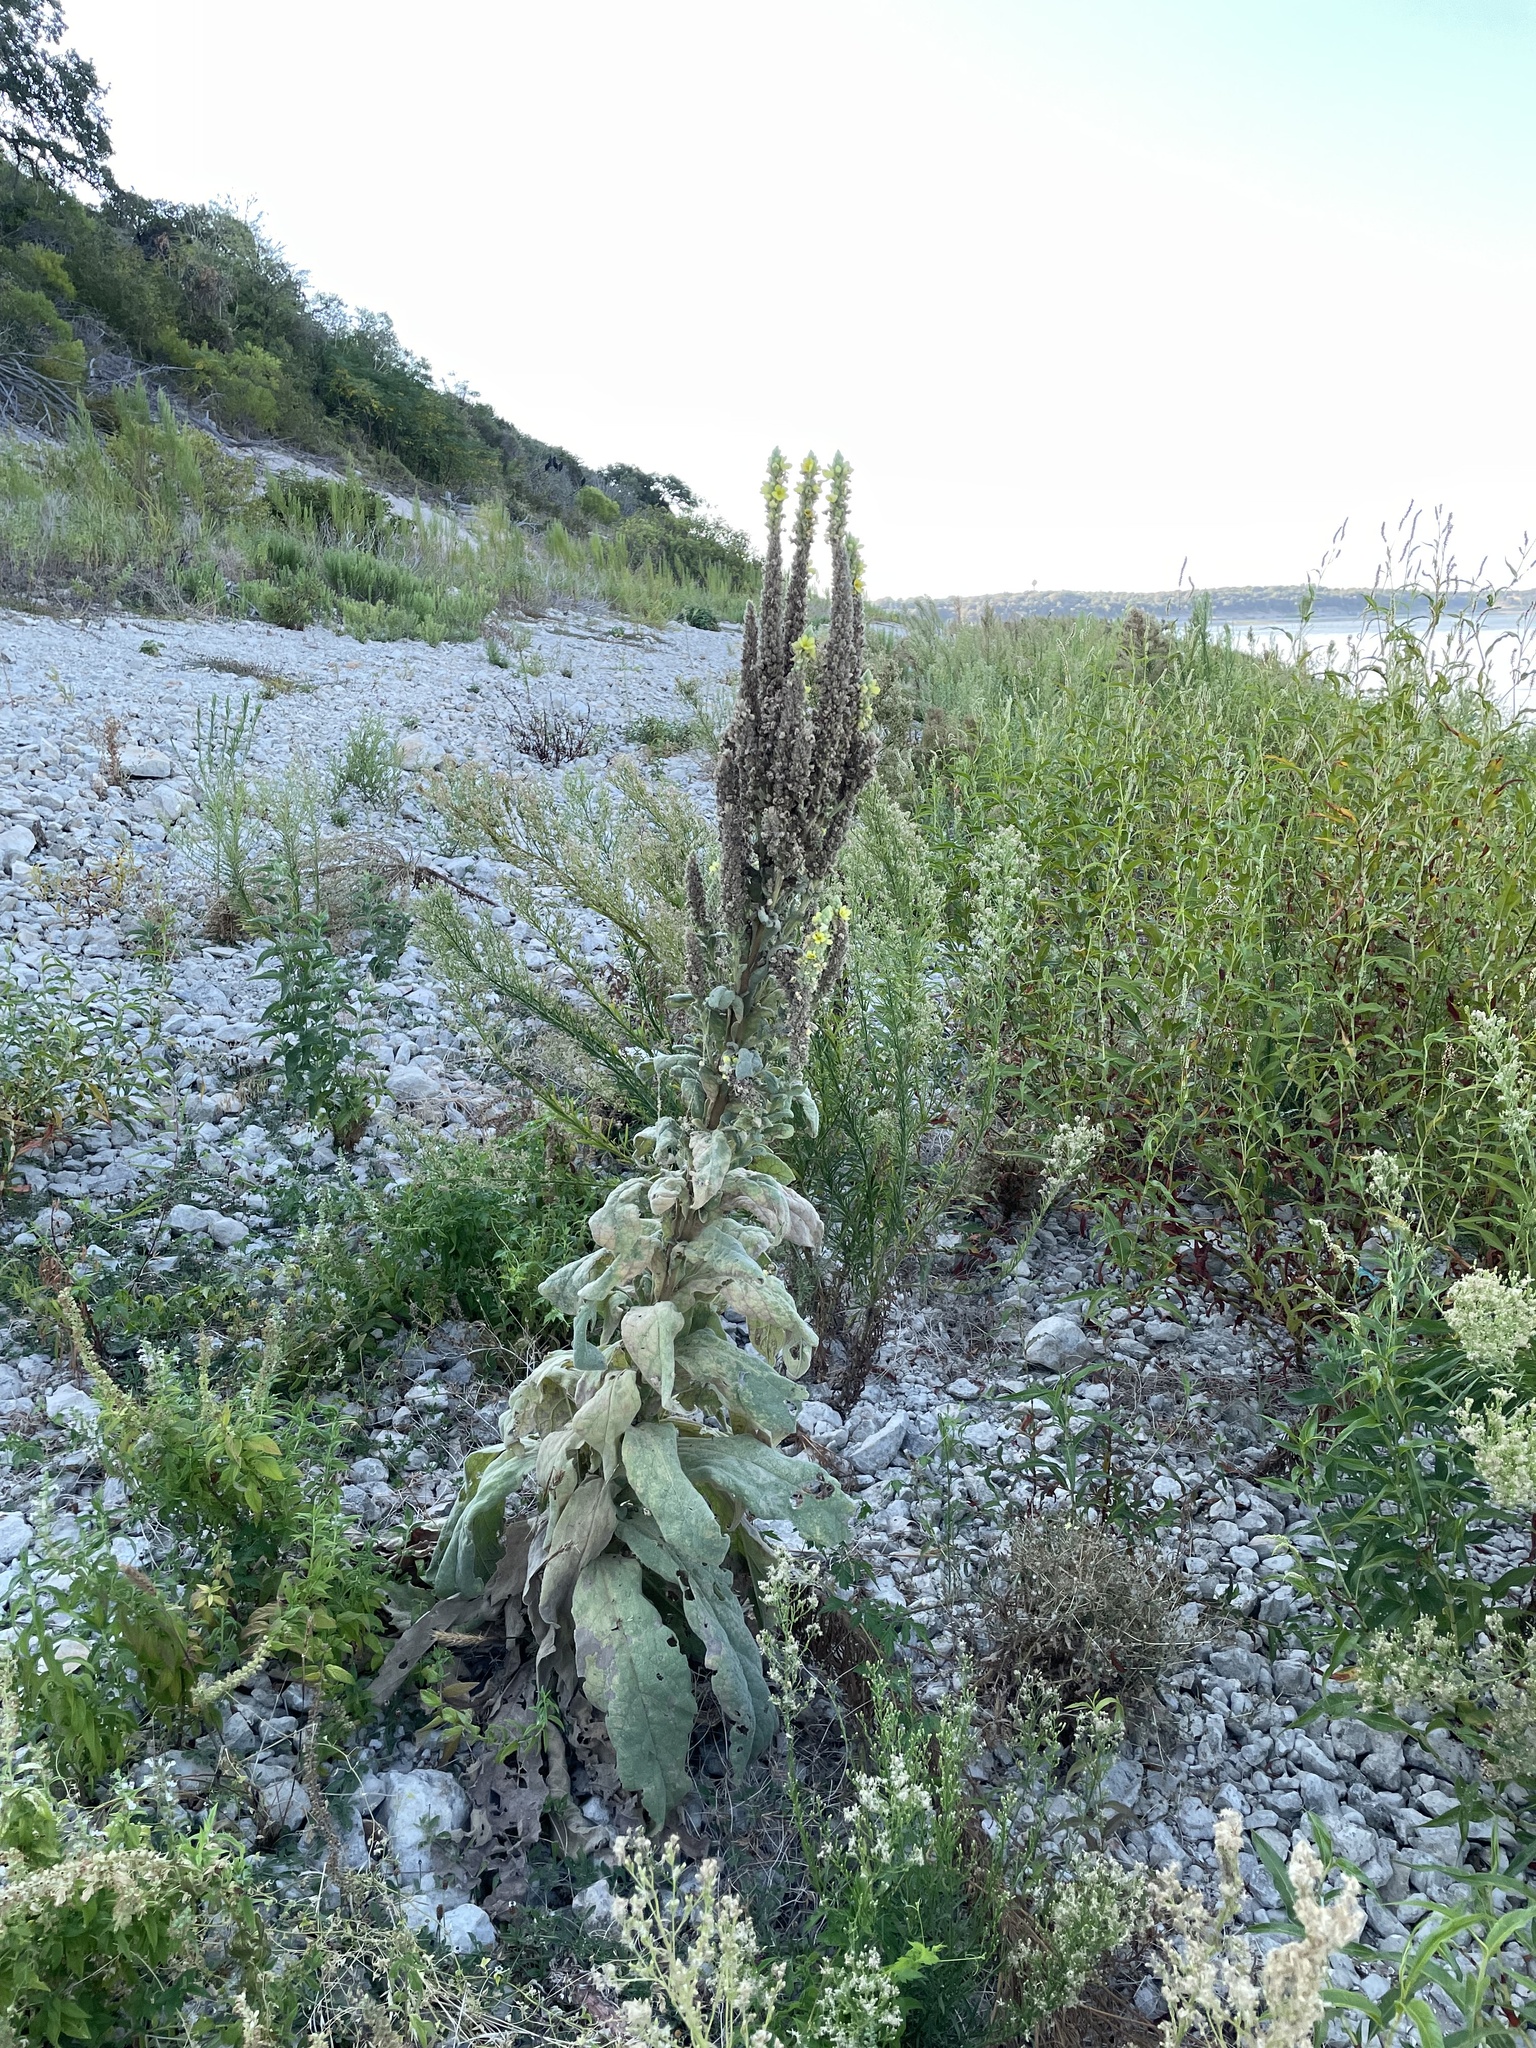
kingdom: Plantae
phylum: Tracheophyta
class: Magnoliopsida
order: Lamiales
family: Scrophulariaceae
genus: Verbascum
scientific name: Verbascum thapsus
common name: Common mullein
